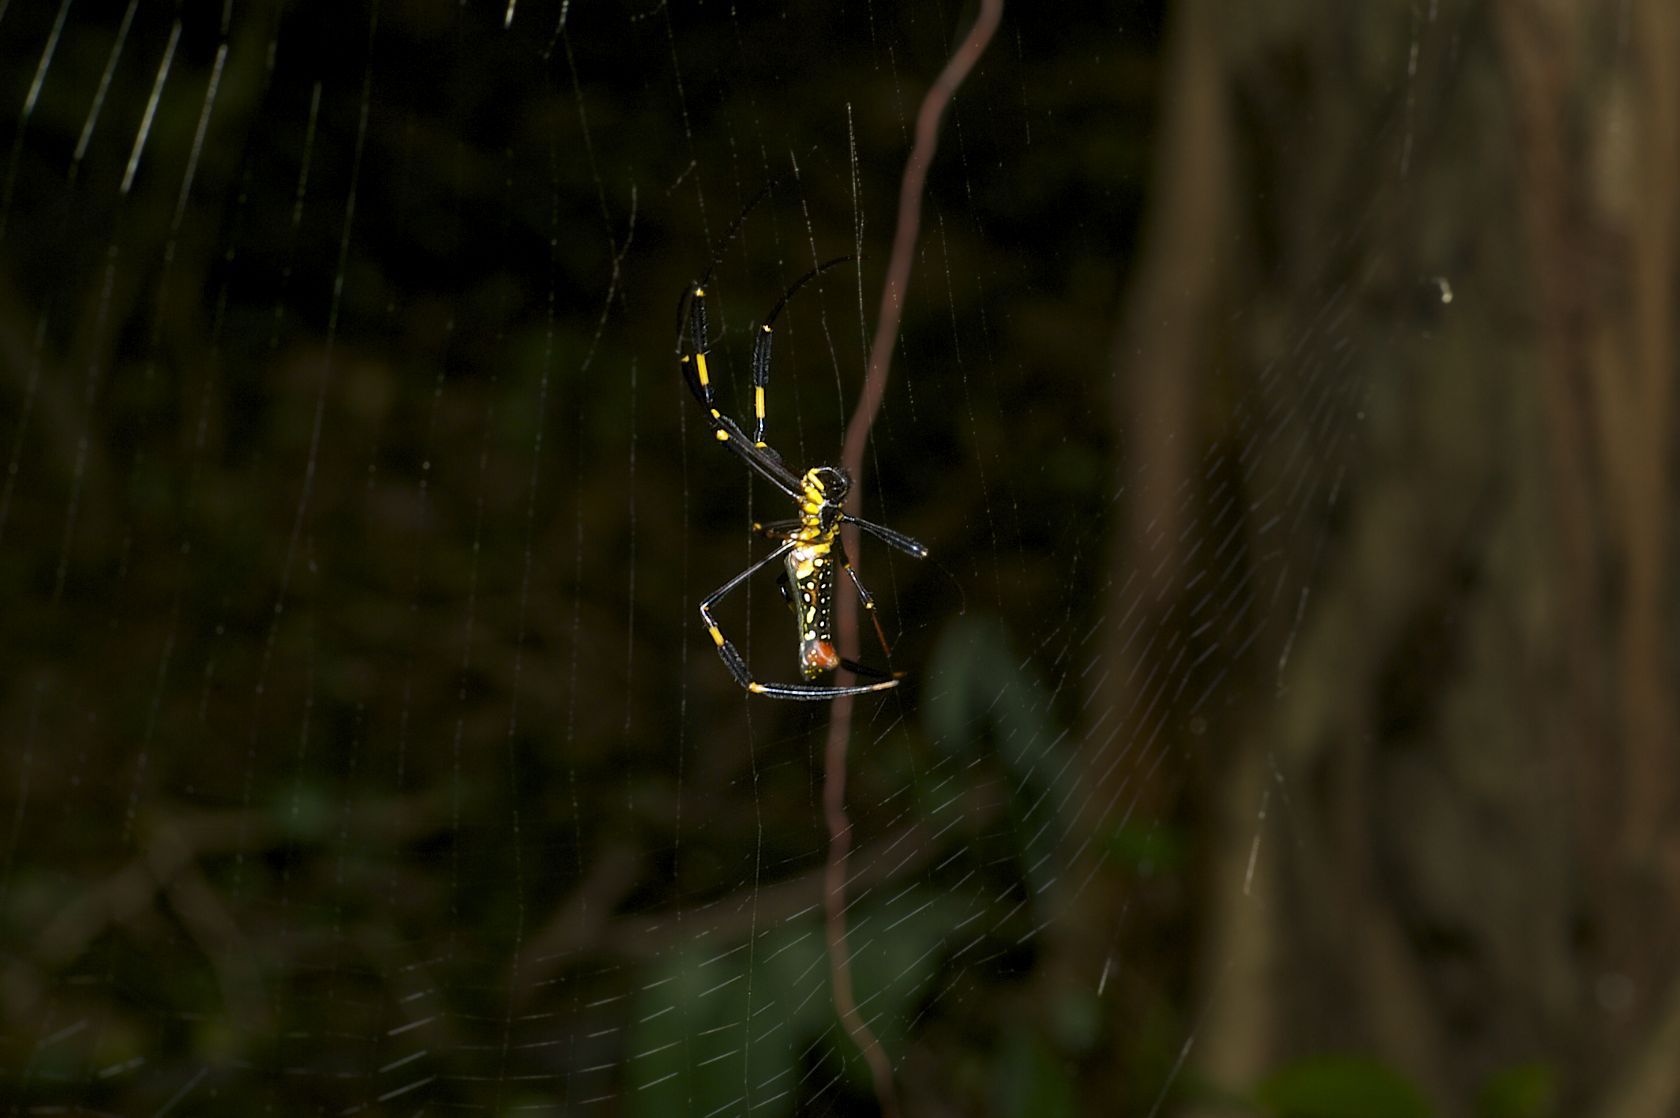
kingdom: Animalia
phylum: Arthropoda
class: Arachnida
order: Araneae
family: Araneidae
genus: Nephila
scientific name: Nephila pilipes
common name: Giant golden orb weaver
